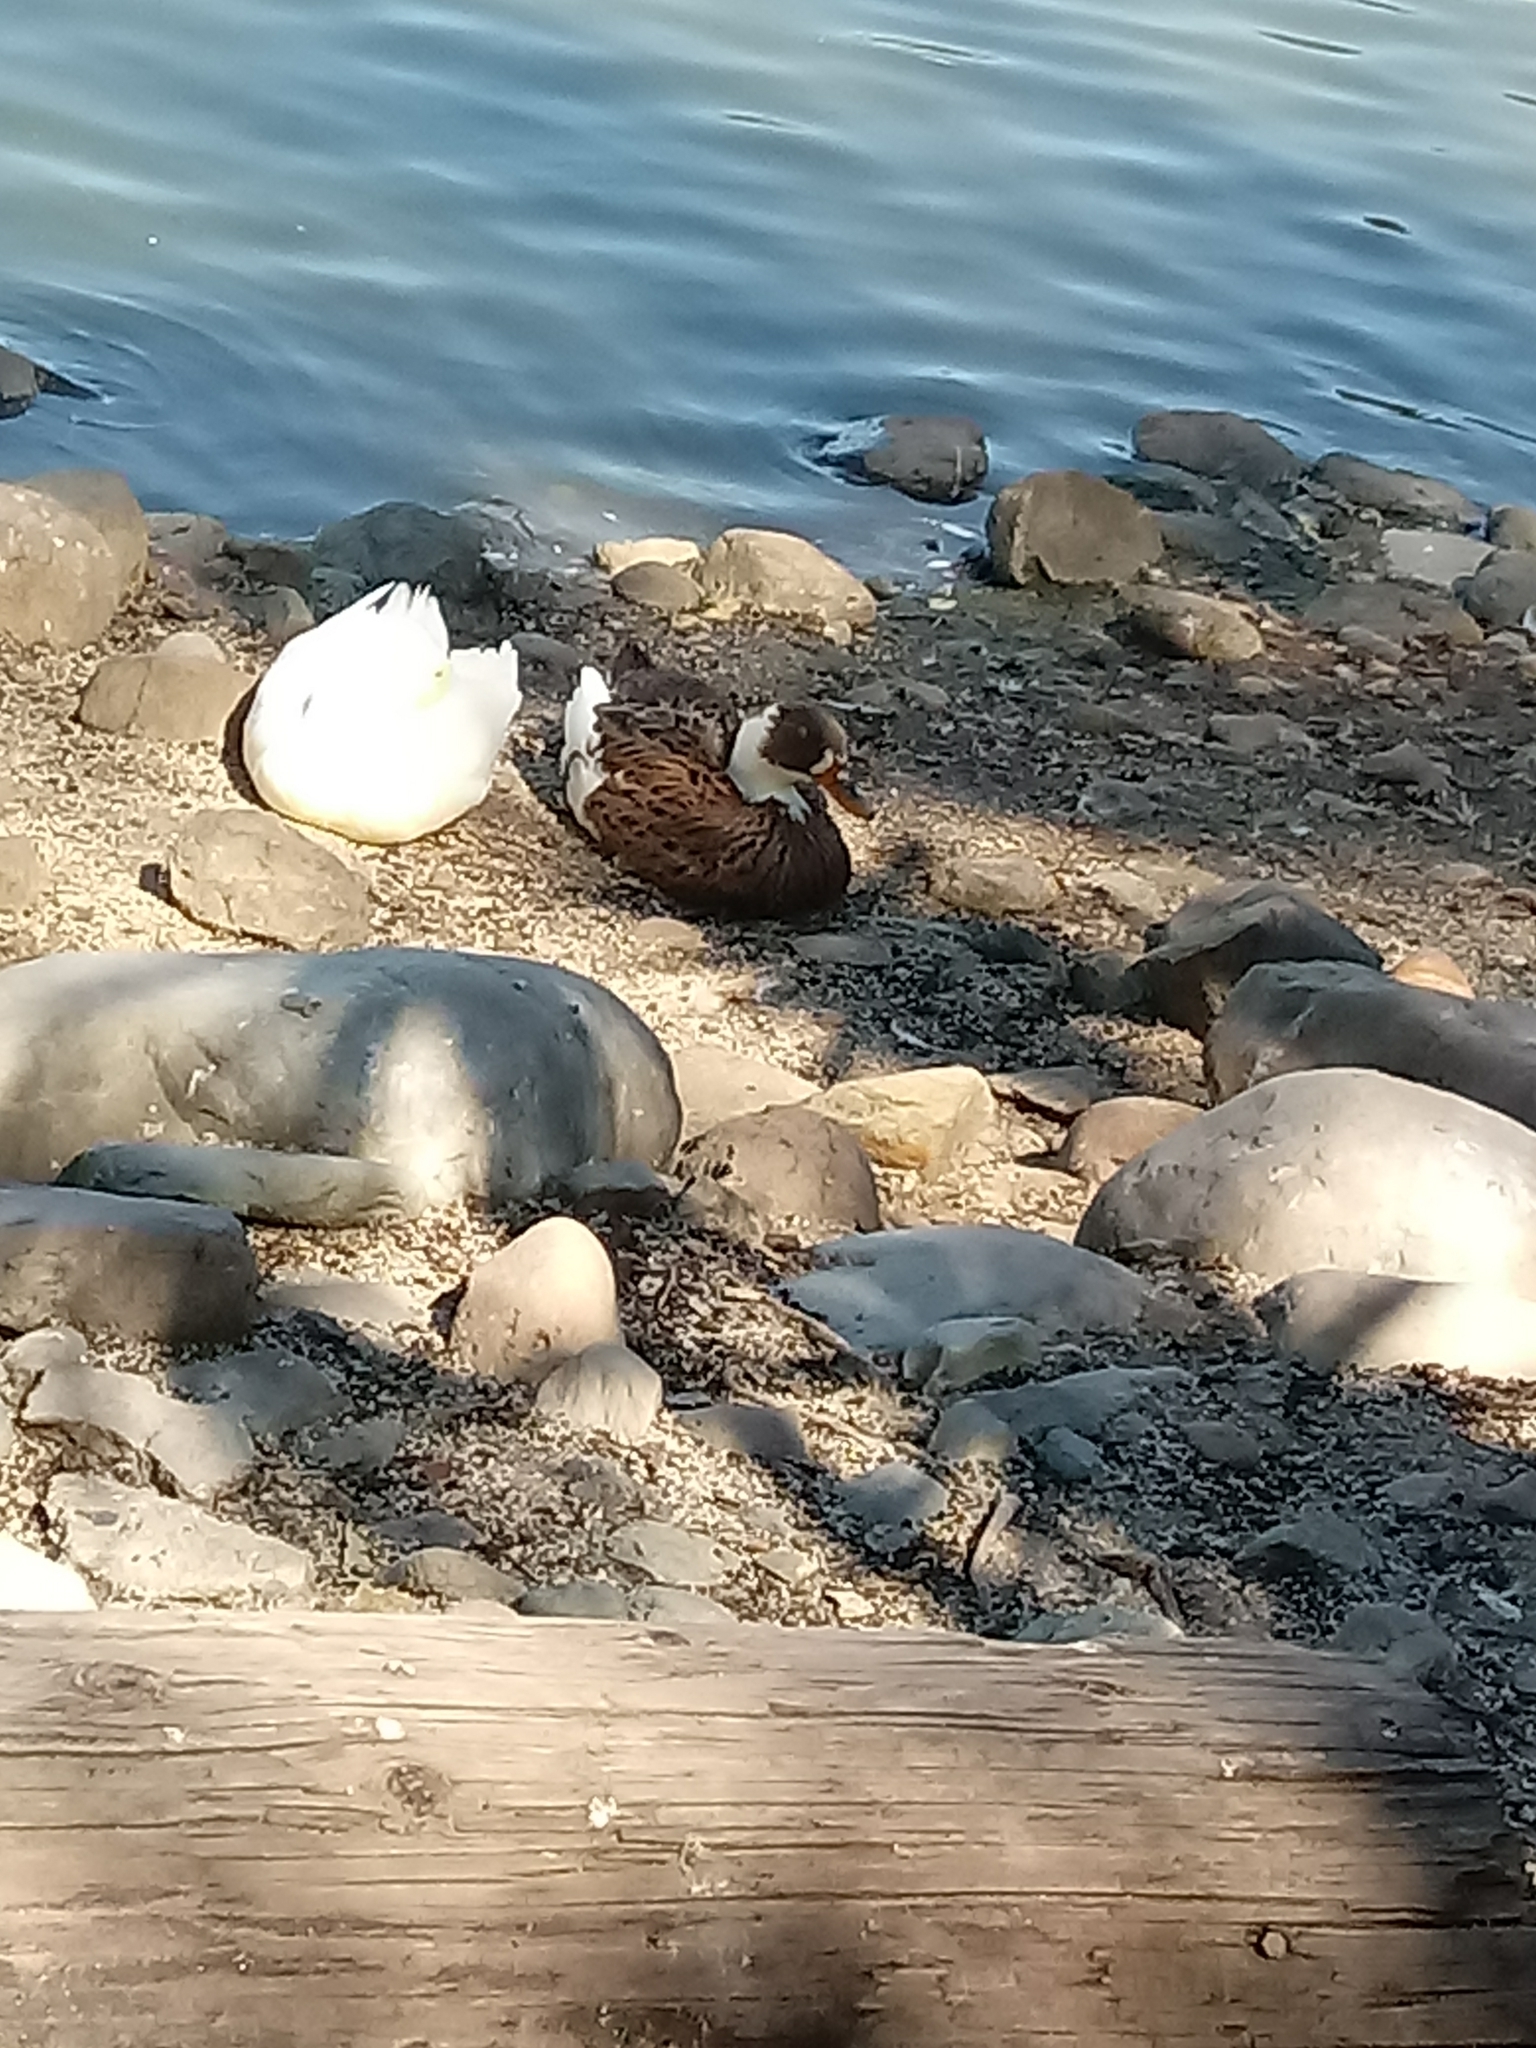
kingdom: Animalia
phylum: Chordata
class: Aves
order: Anseriformes
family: Anatidae
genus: Anas
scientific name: Anas platyrhynchos
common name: Mallard
